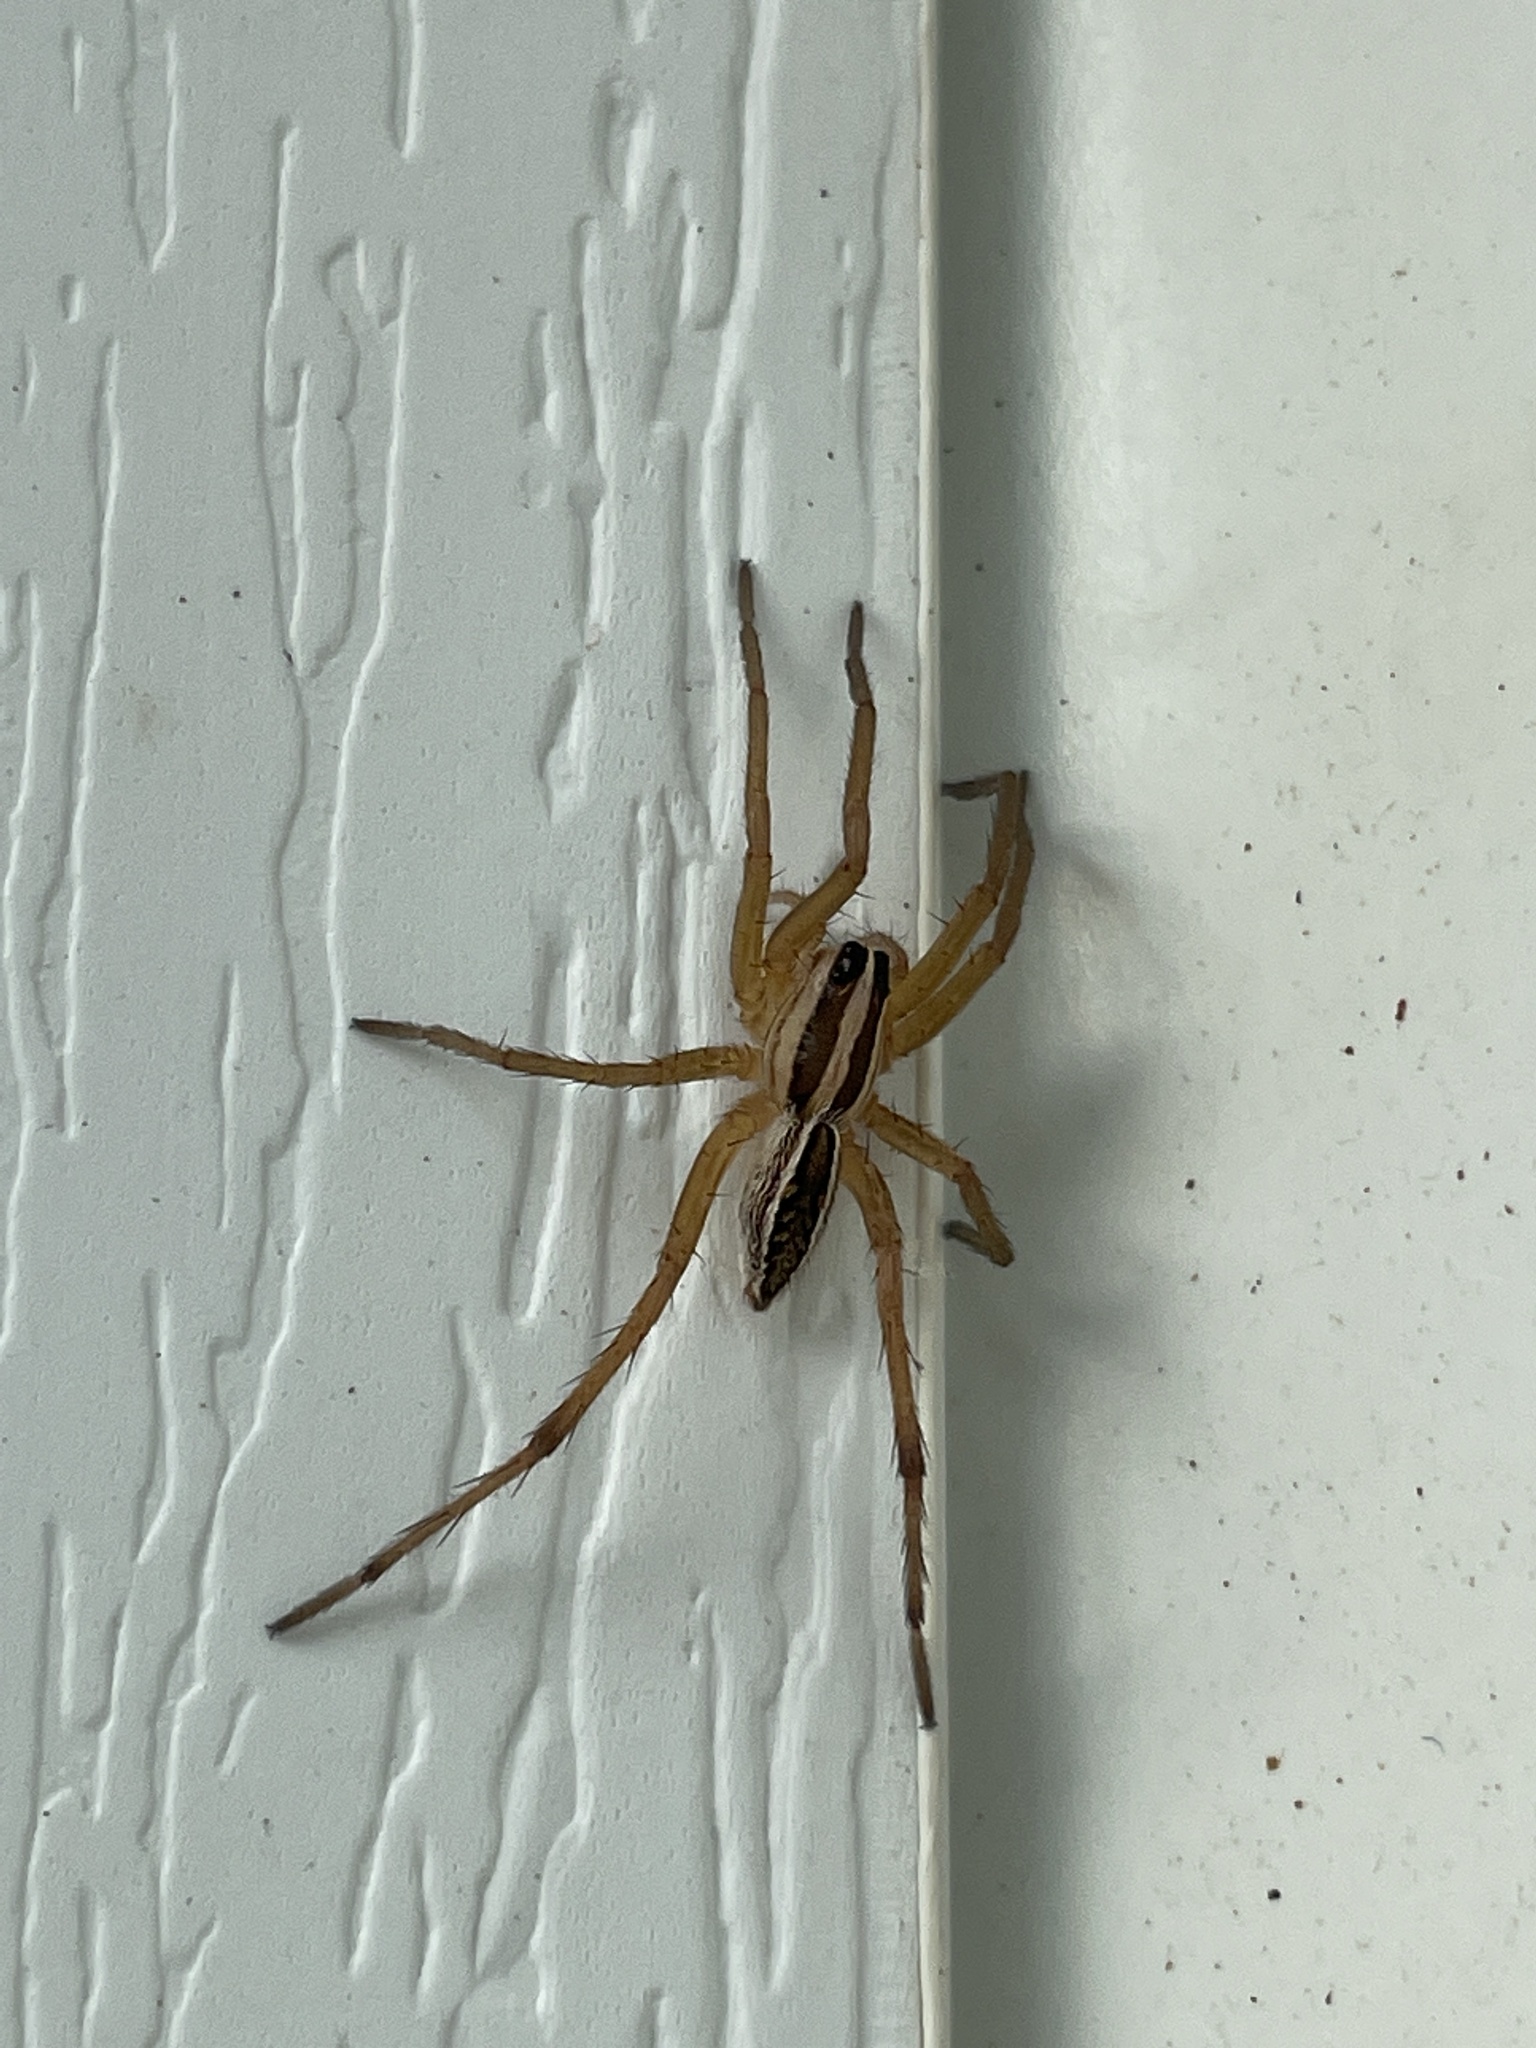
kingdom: Animalia
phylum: Arthropoda
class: Arachnida
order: Araneae
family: Lycosidae
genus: Rabidosa
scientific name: Rabidosa rabida
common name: Rabid wolf spider
